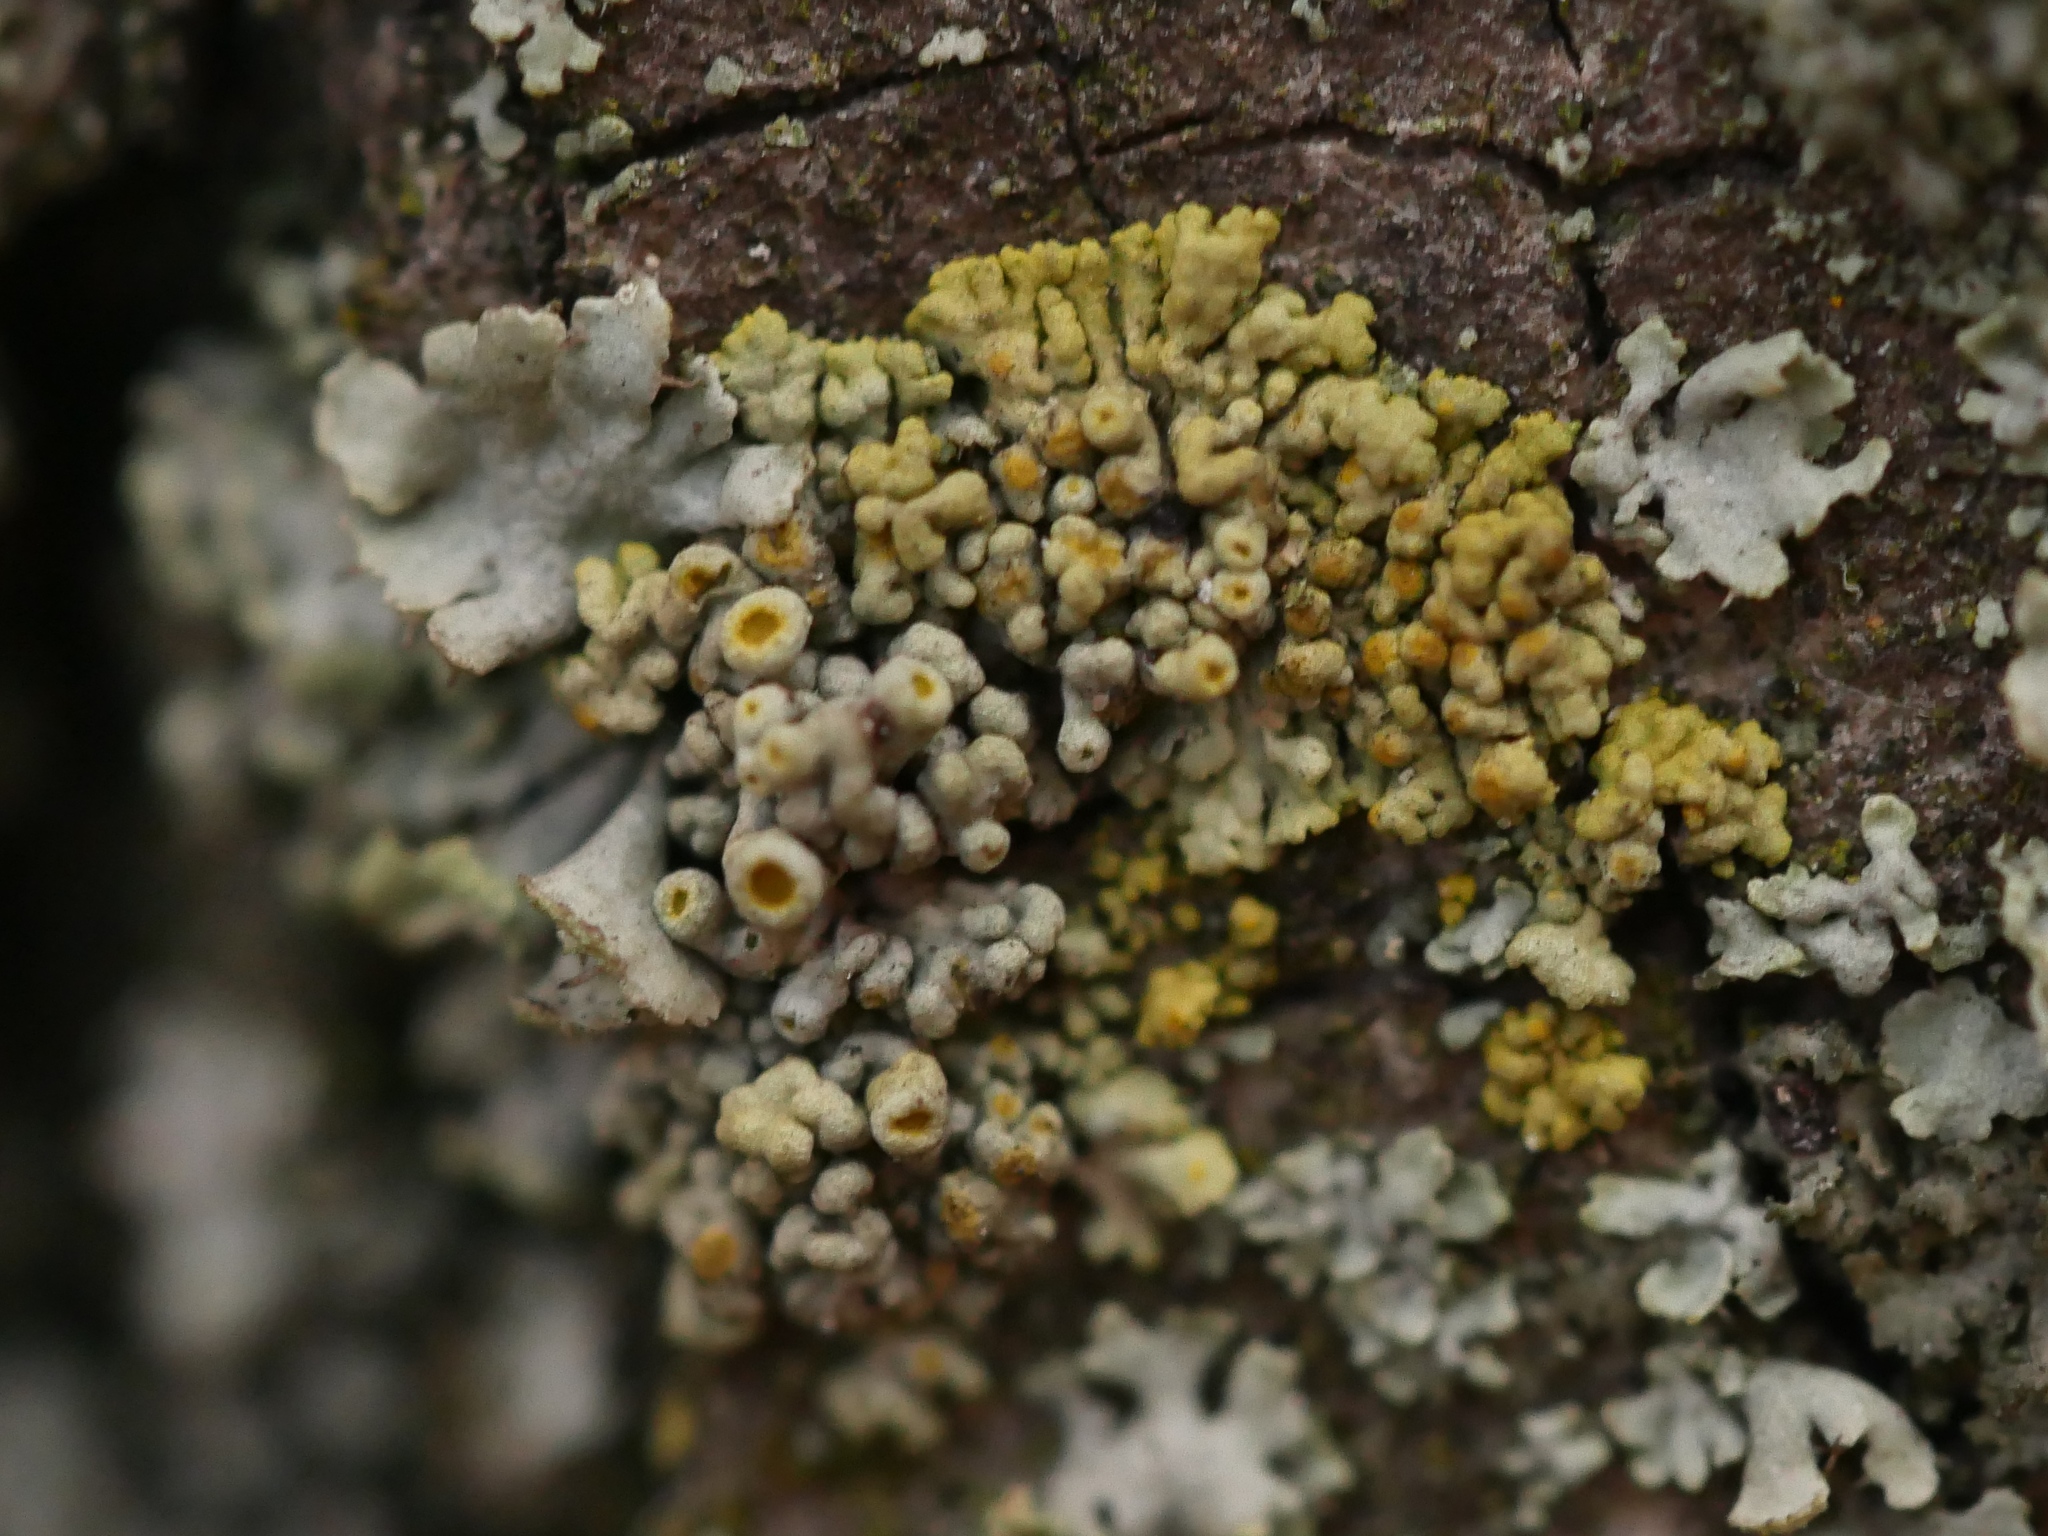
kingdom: Fungi
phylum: Ascomycota
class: Lecanoromycetes
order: Teloschistales
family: Teloschistaceae
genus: Polycauliona
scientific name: Polycauliona polycarpa
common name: Pin-cushion sunburst lichen
